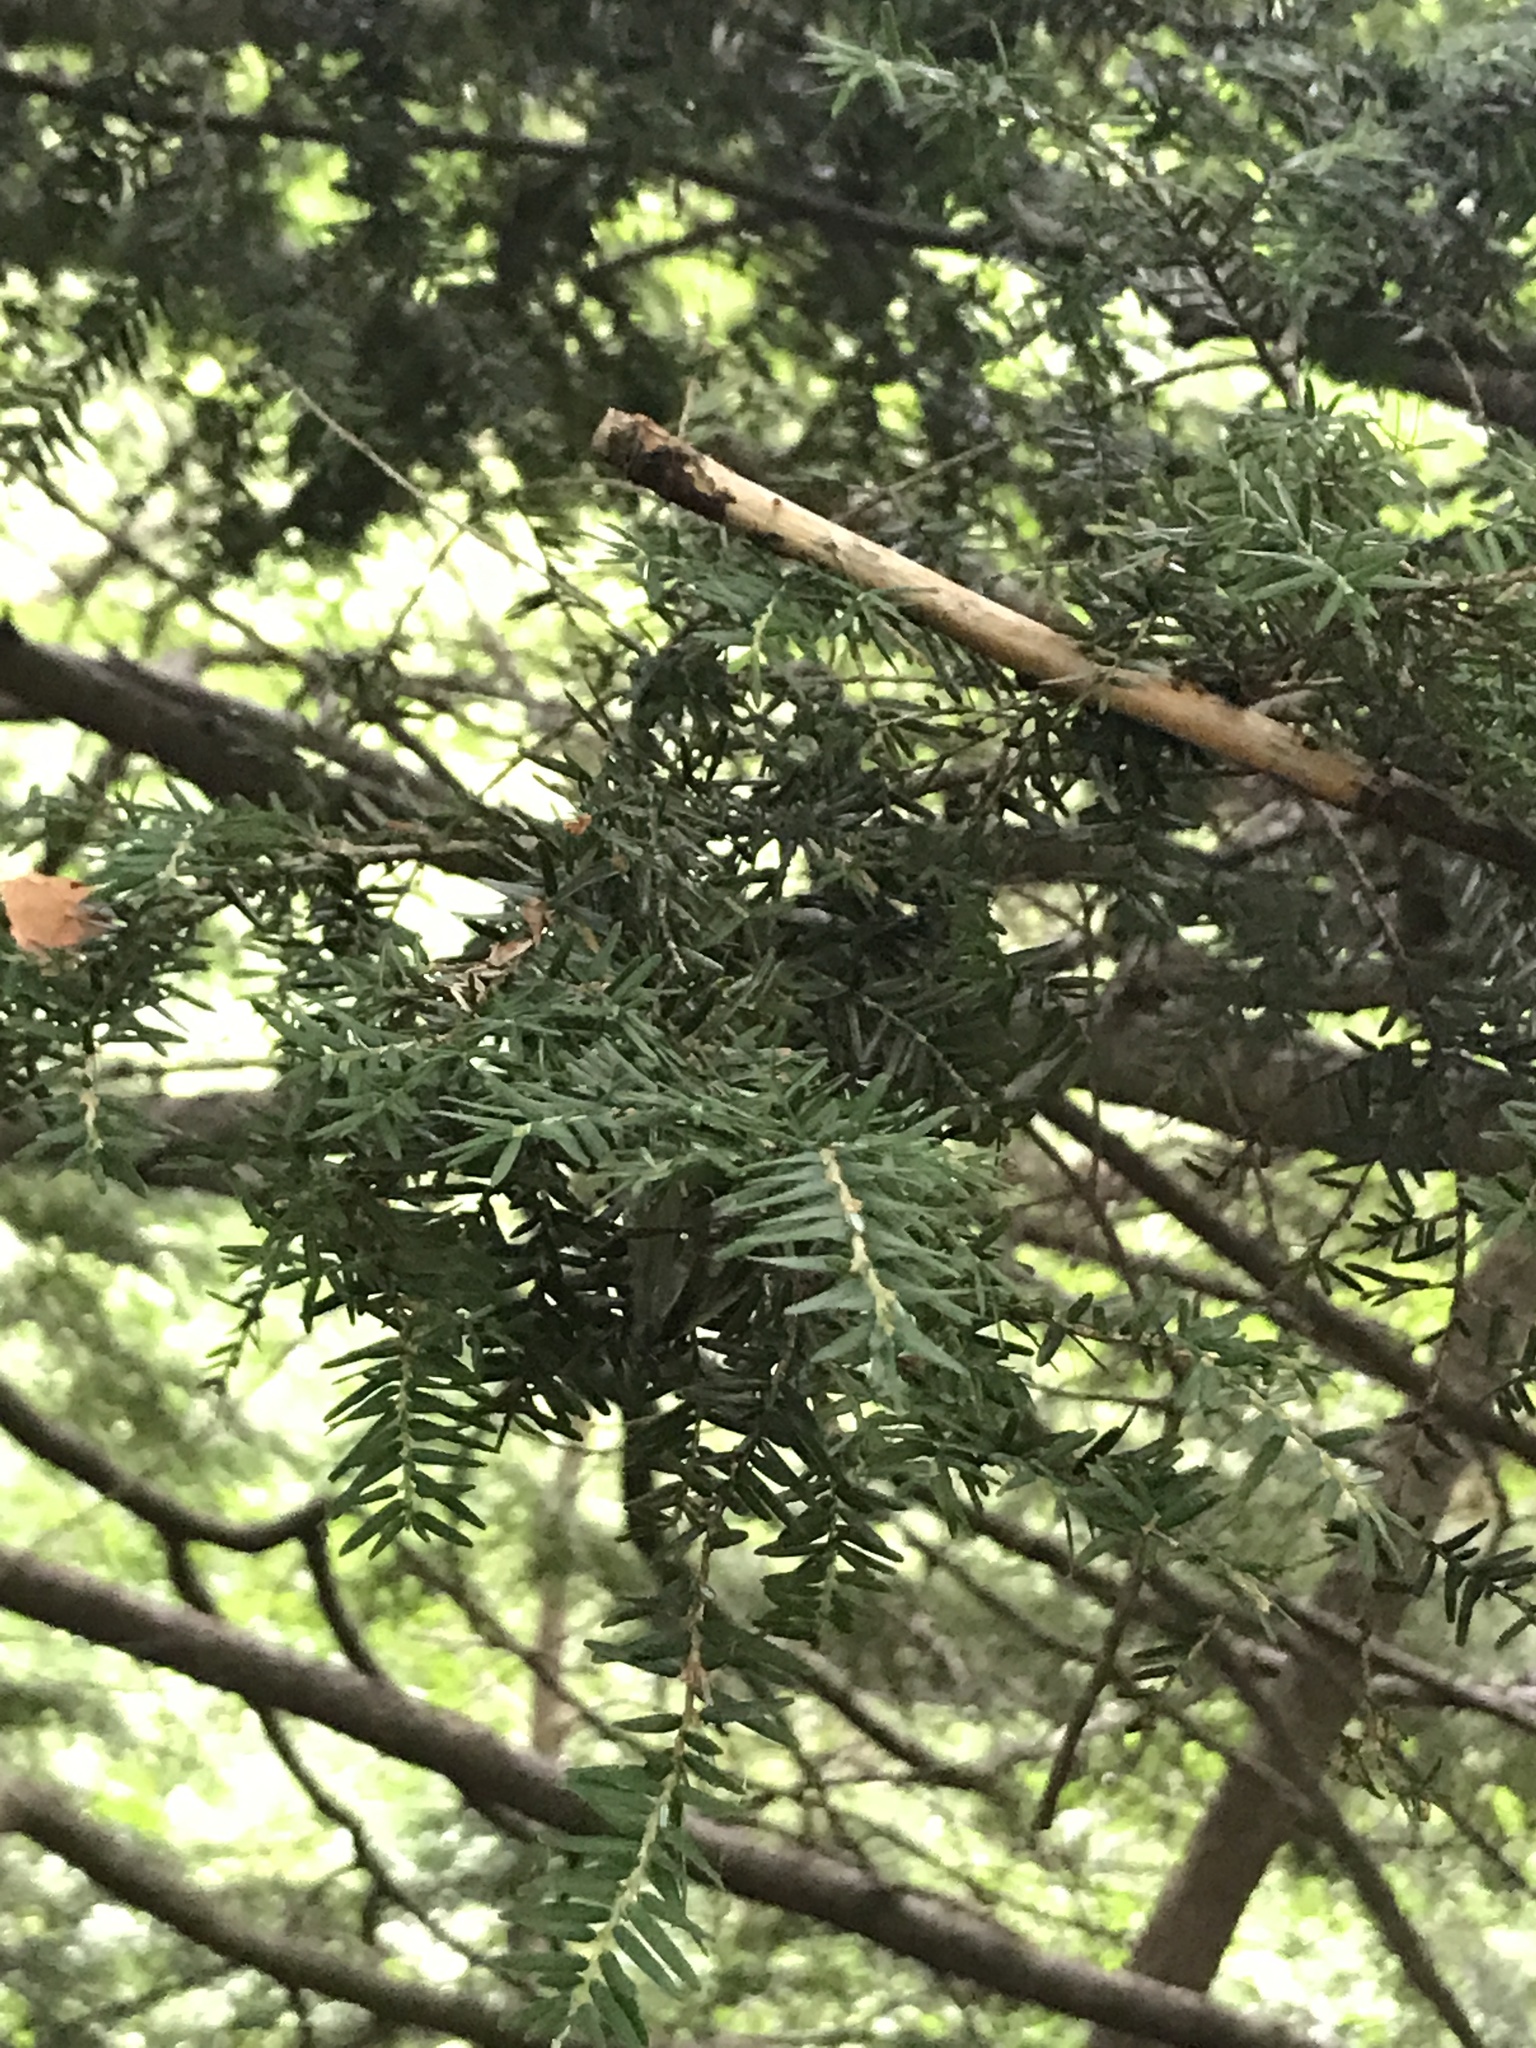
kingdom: Plantae
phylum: Tracheophyta
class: Pinopsida
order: Pinales
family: Pinaceae
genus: Tsuga
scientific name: Tsuga canadensis
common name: Eastern hemlock
